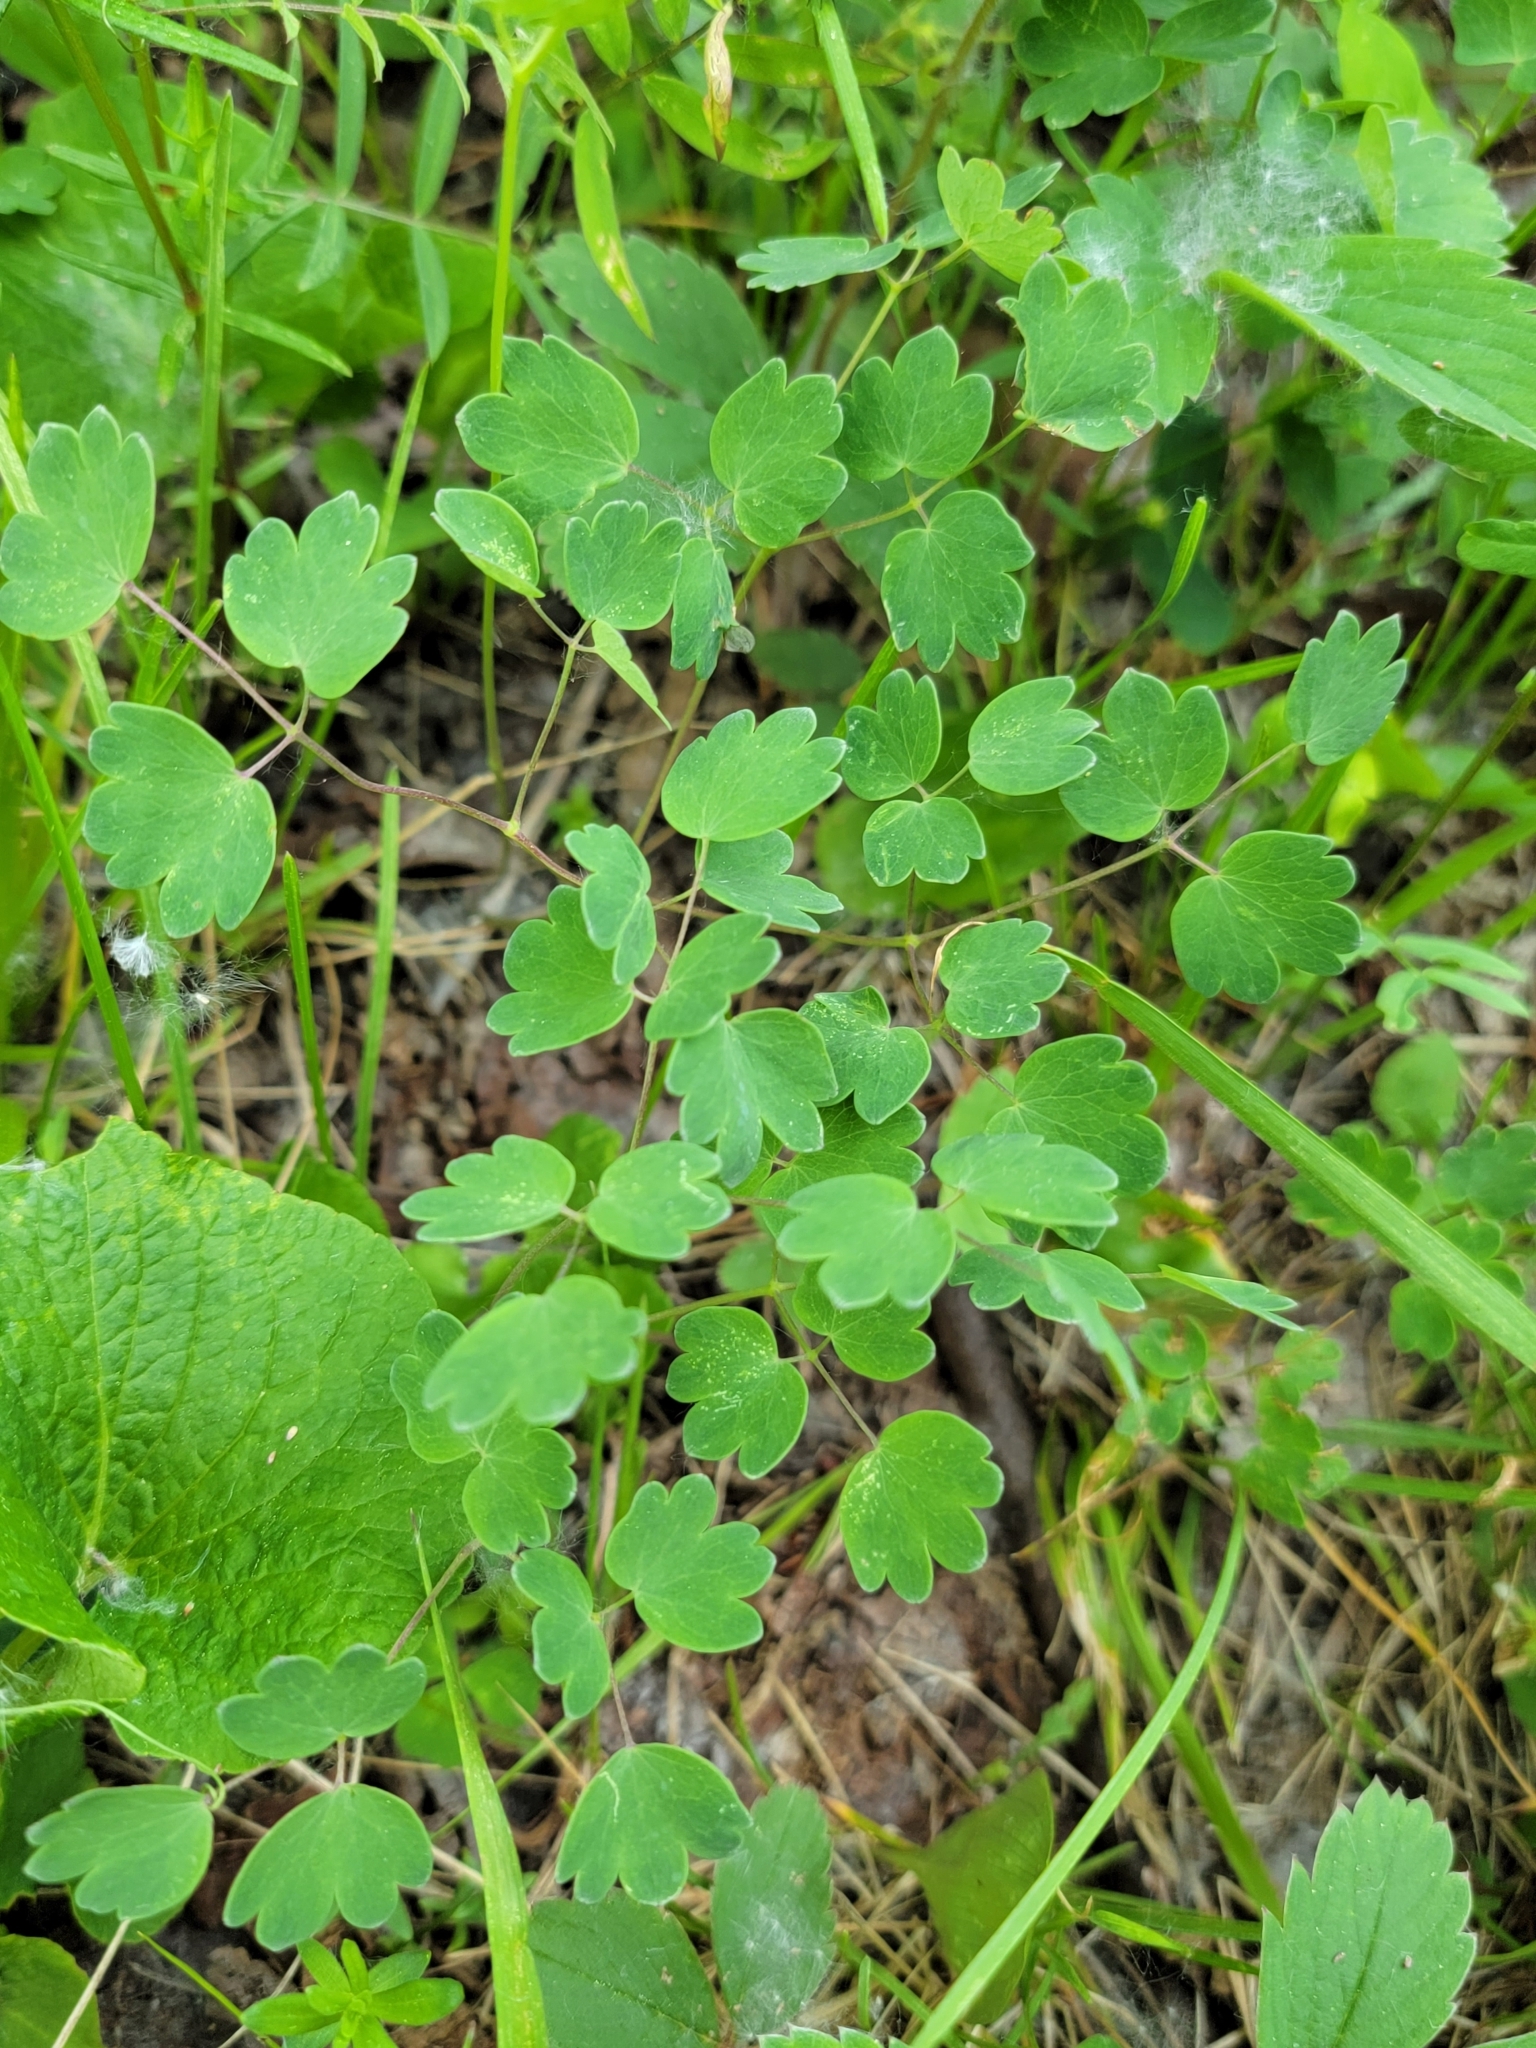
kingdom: Plantae
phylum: Tracheophyta
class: Magnoliopsida
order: Ranunculales
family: Ranunculaceae
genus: Thalictrum
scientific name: Thalictrum venulosum
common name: Early meadow-rue
